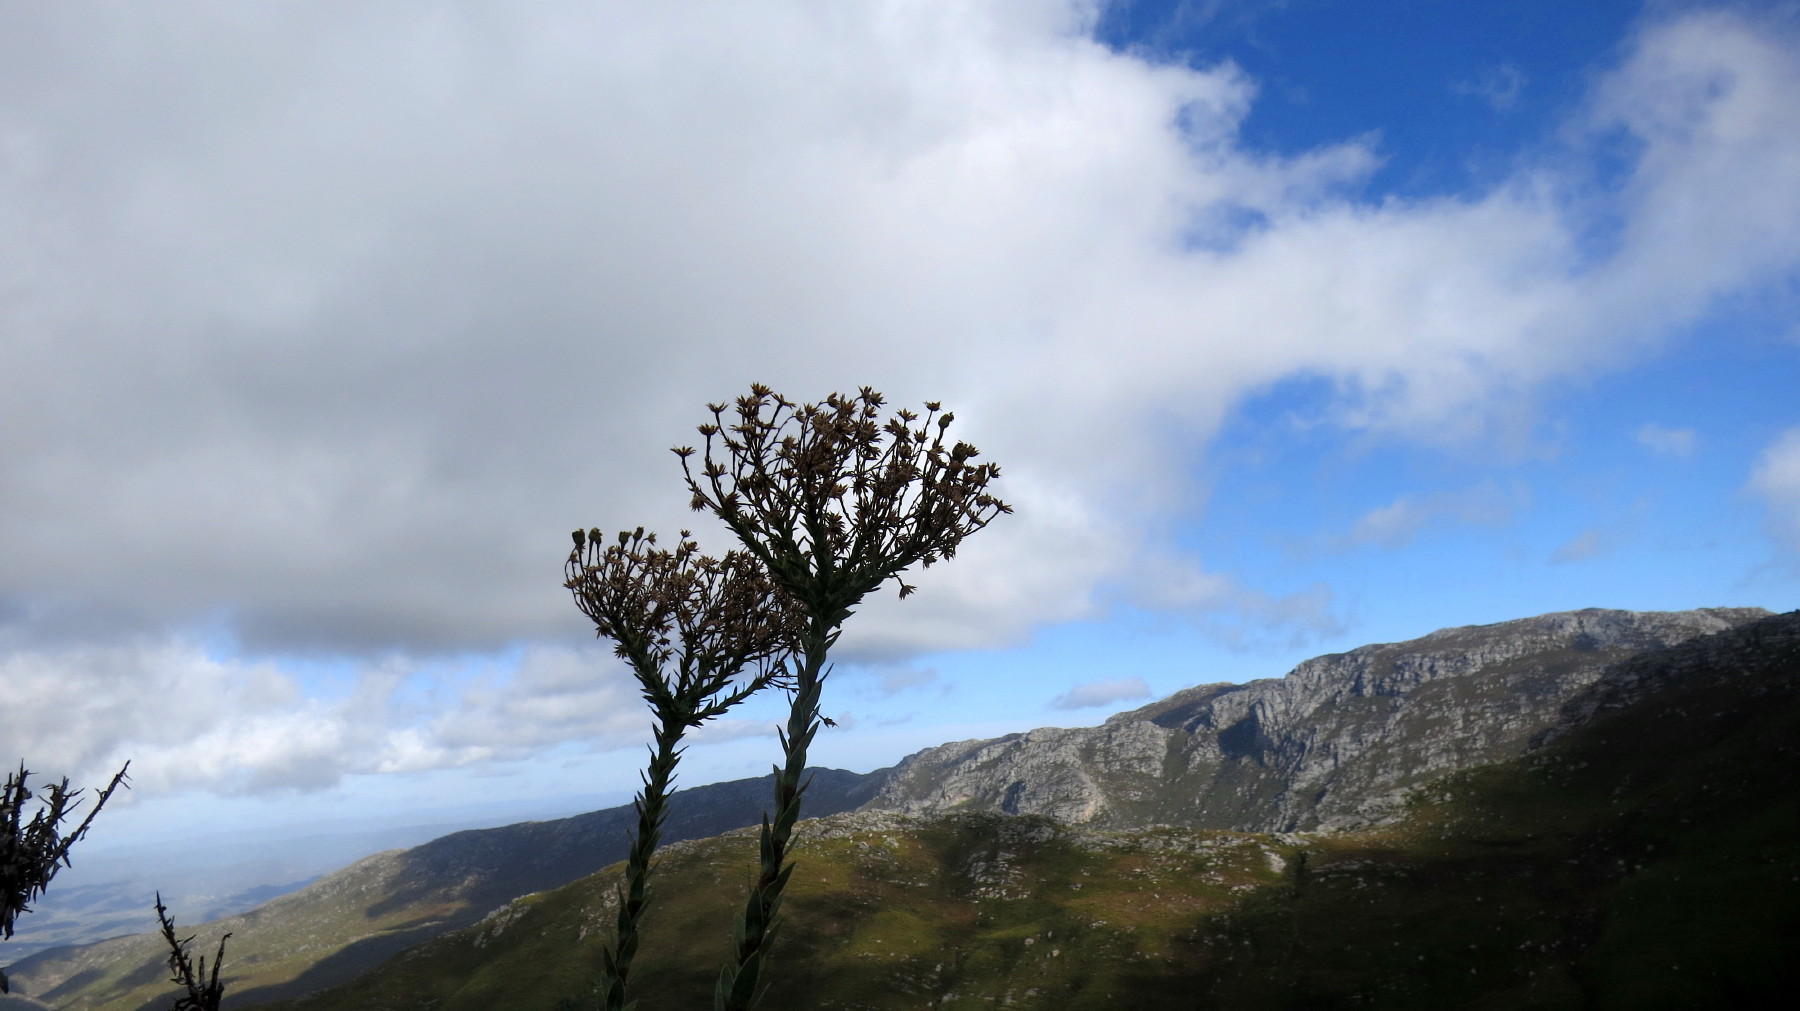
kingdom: Plantae
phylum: Tracheophyta
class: Magnoliopsida
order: Asterales
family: Asteraceae
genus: Osteospermum
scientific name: Osteospermum corymbosum
